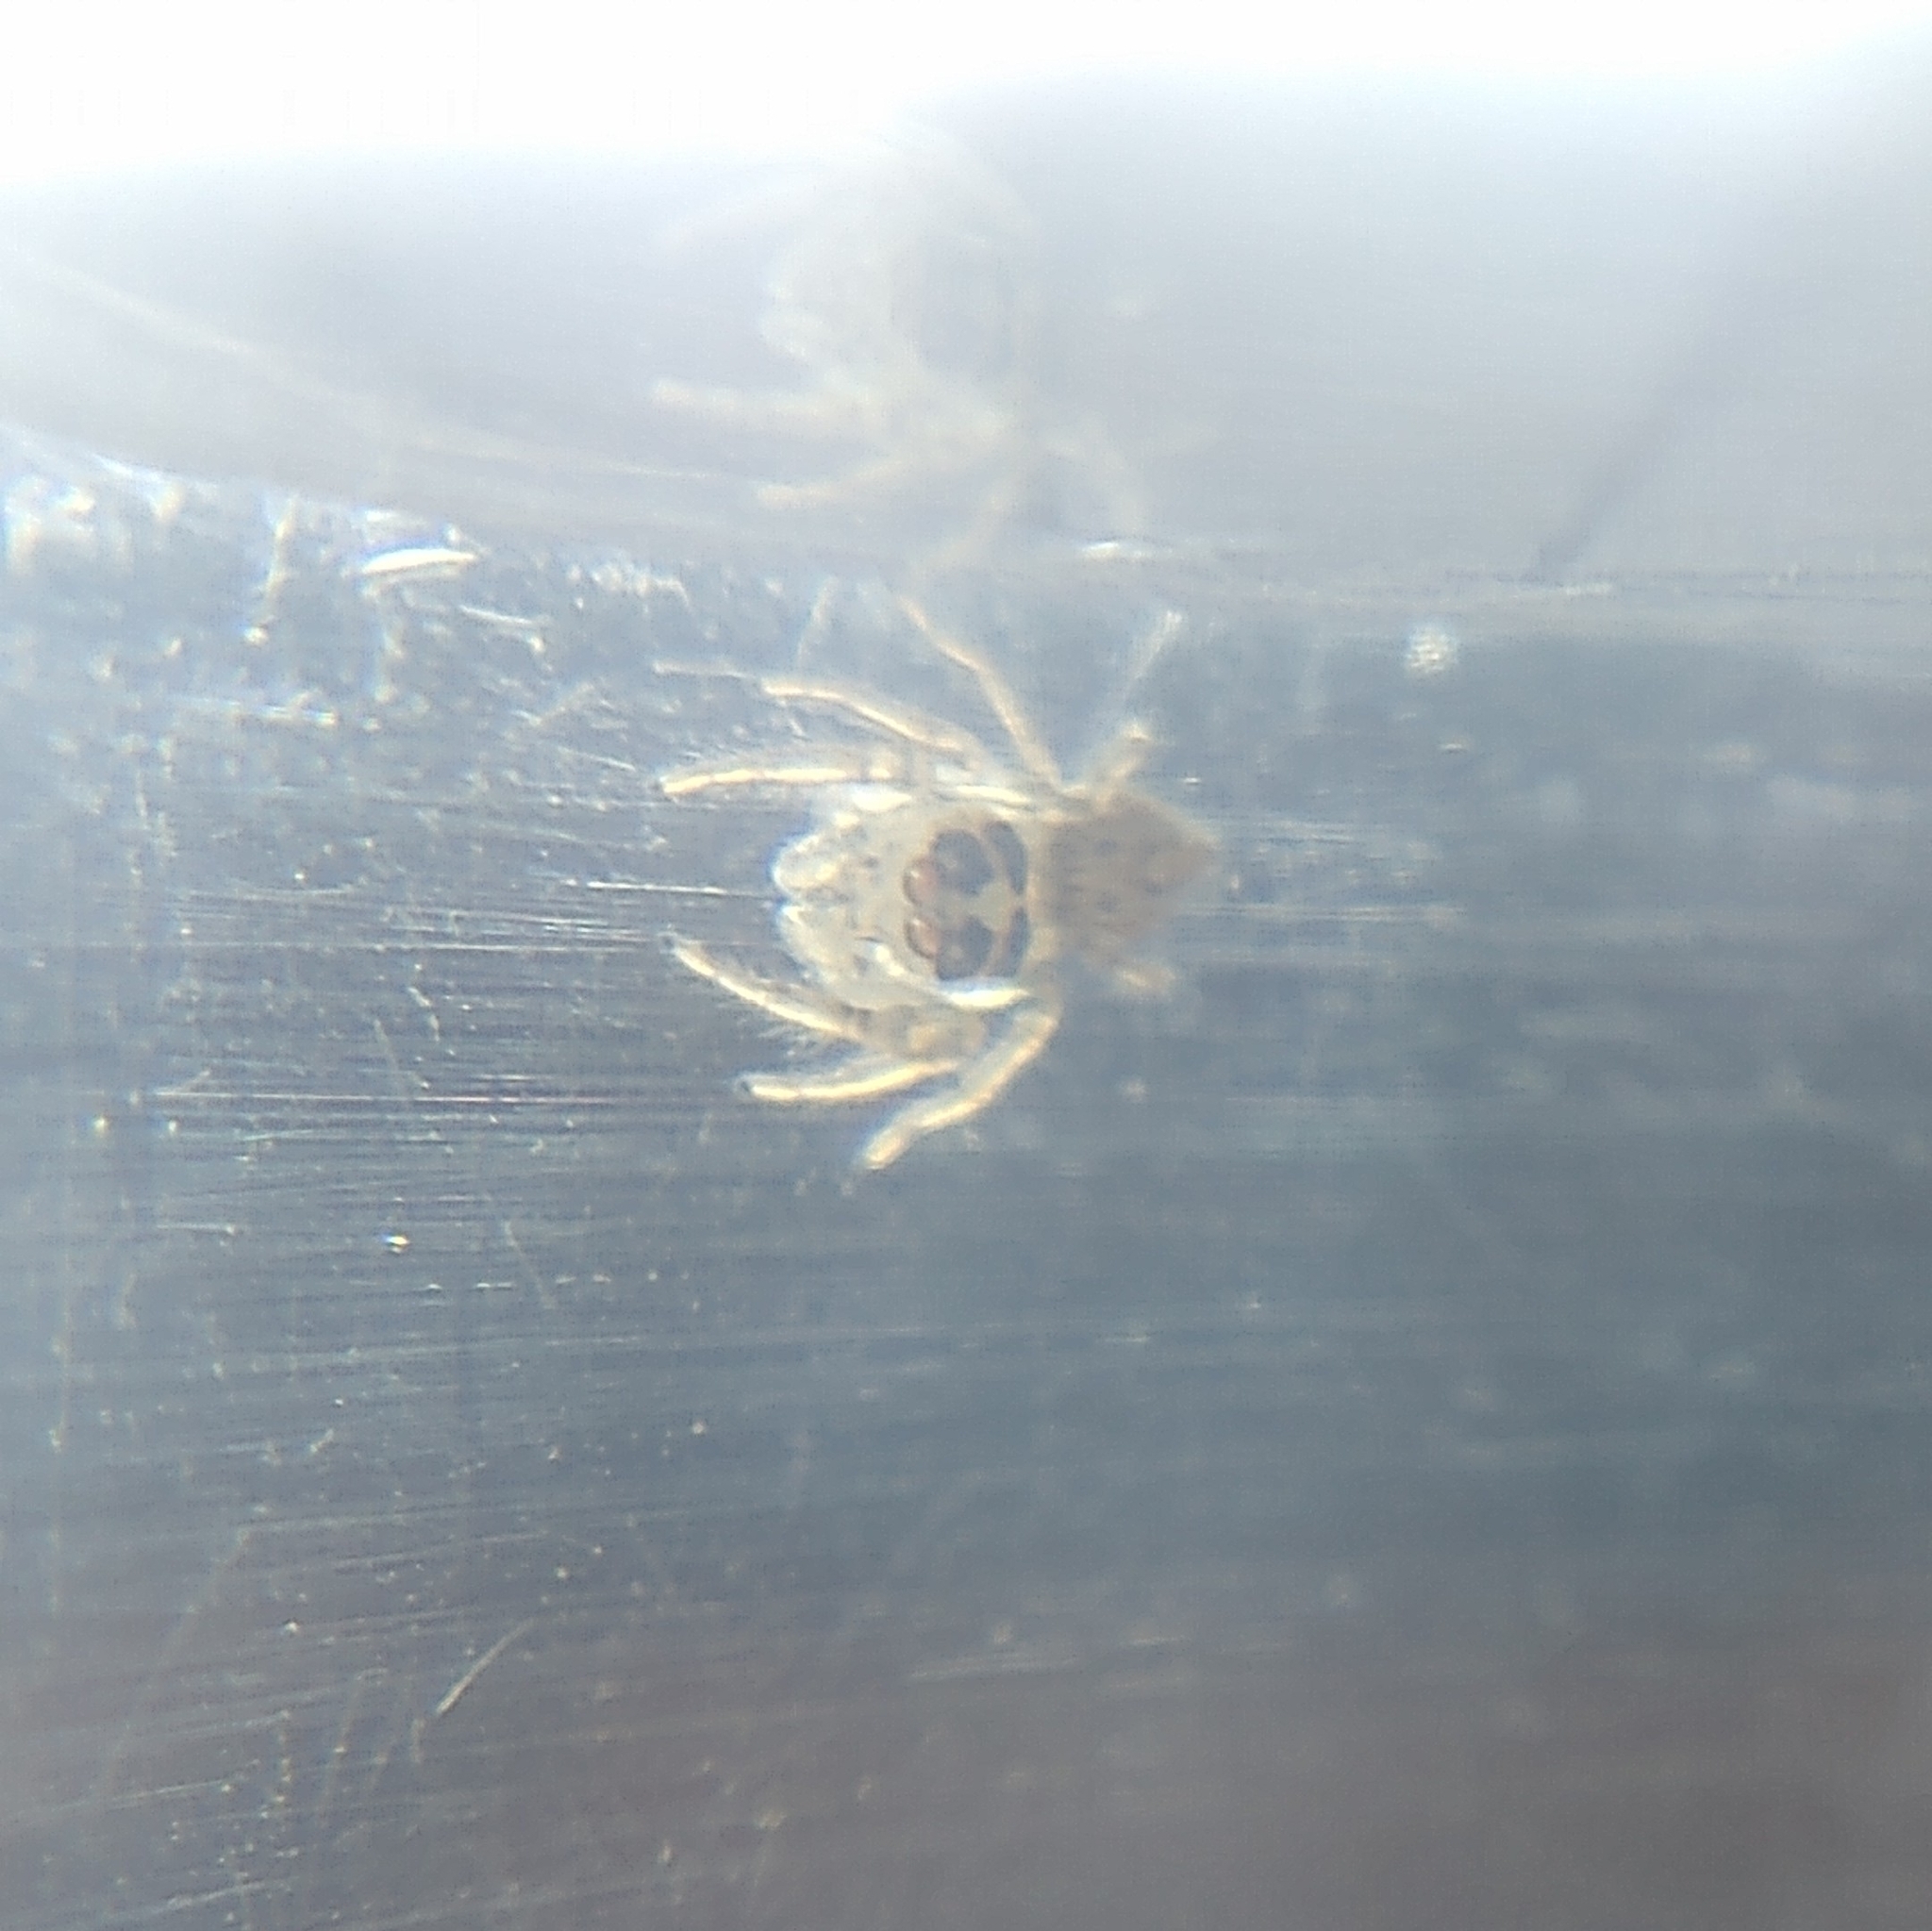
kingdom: Animalia
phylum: Arthropoda
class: Arachnida
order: Araneae
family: Salticidae
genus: Colonus
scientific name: Colonus hesperus
